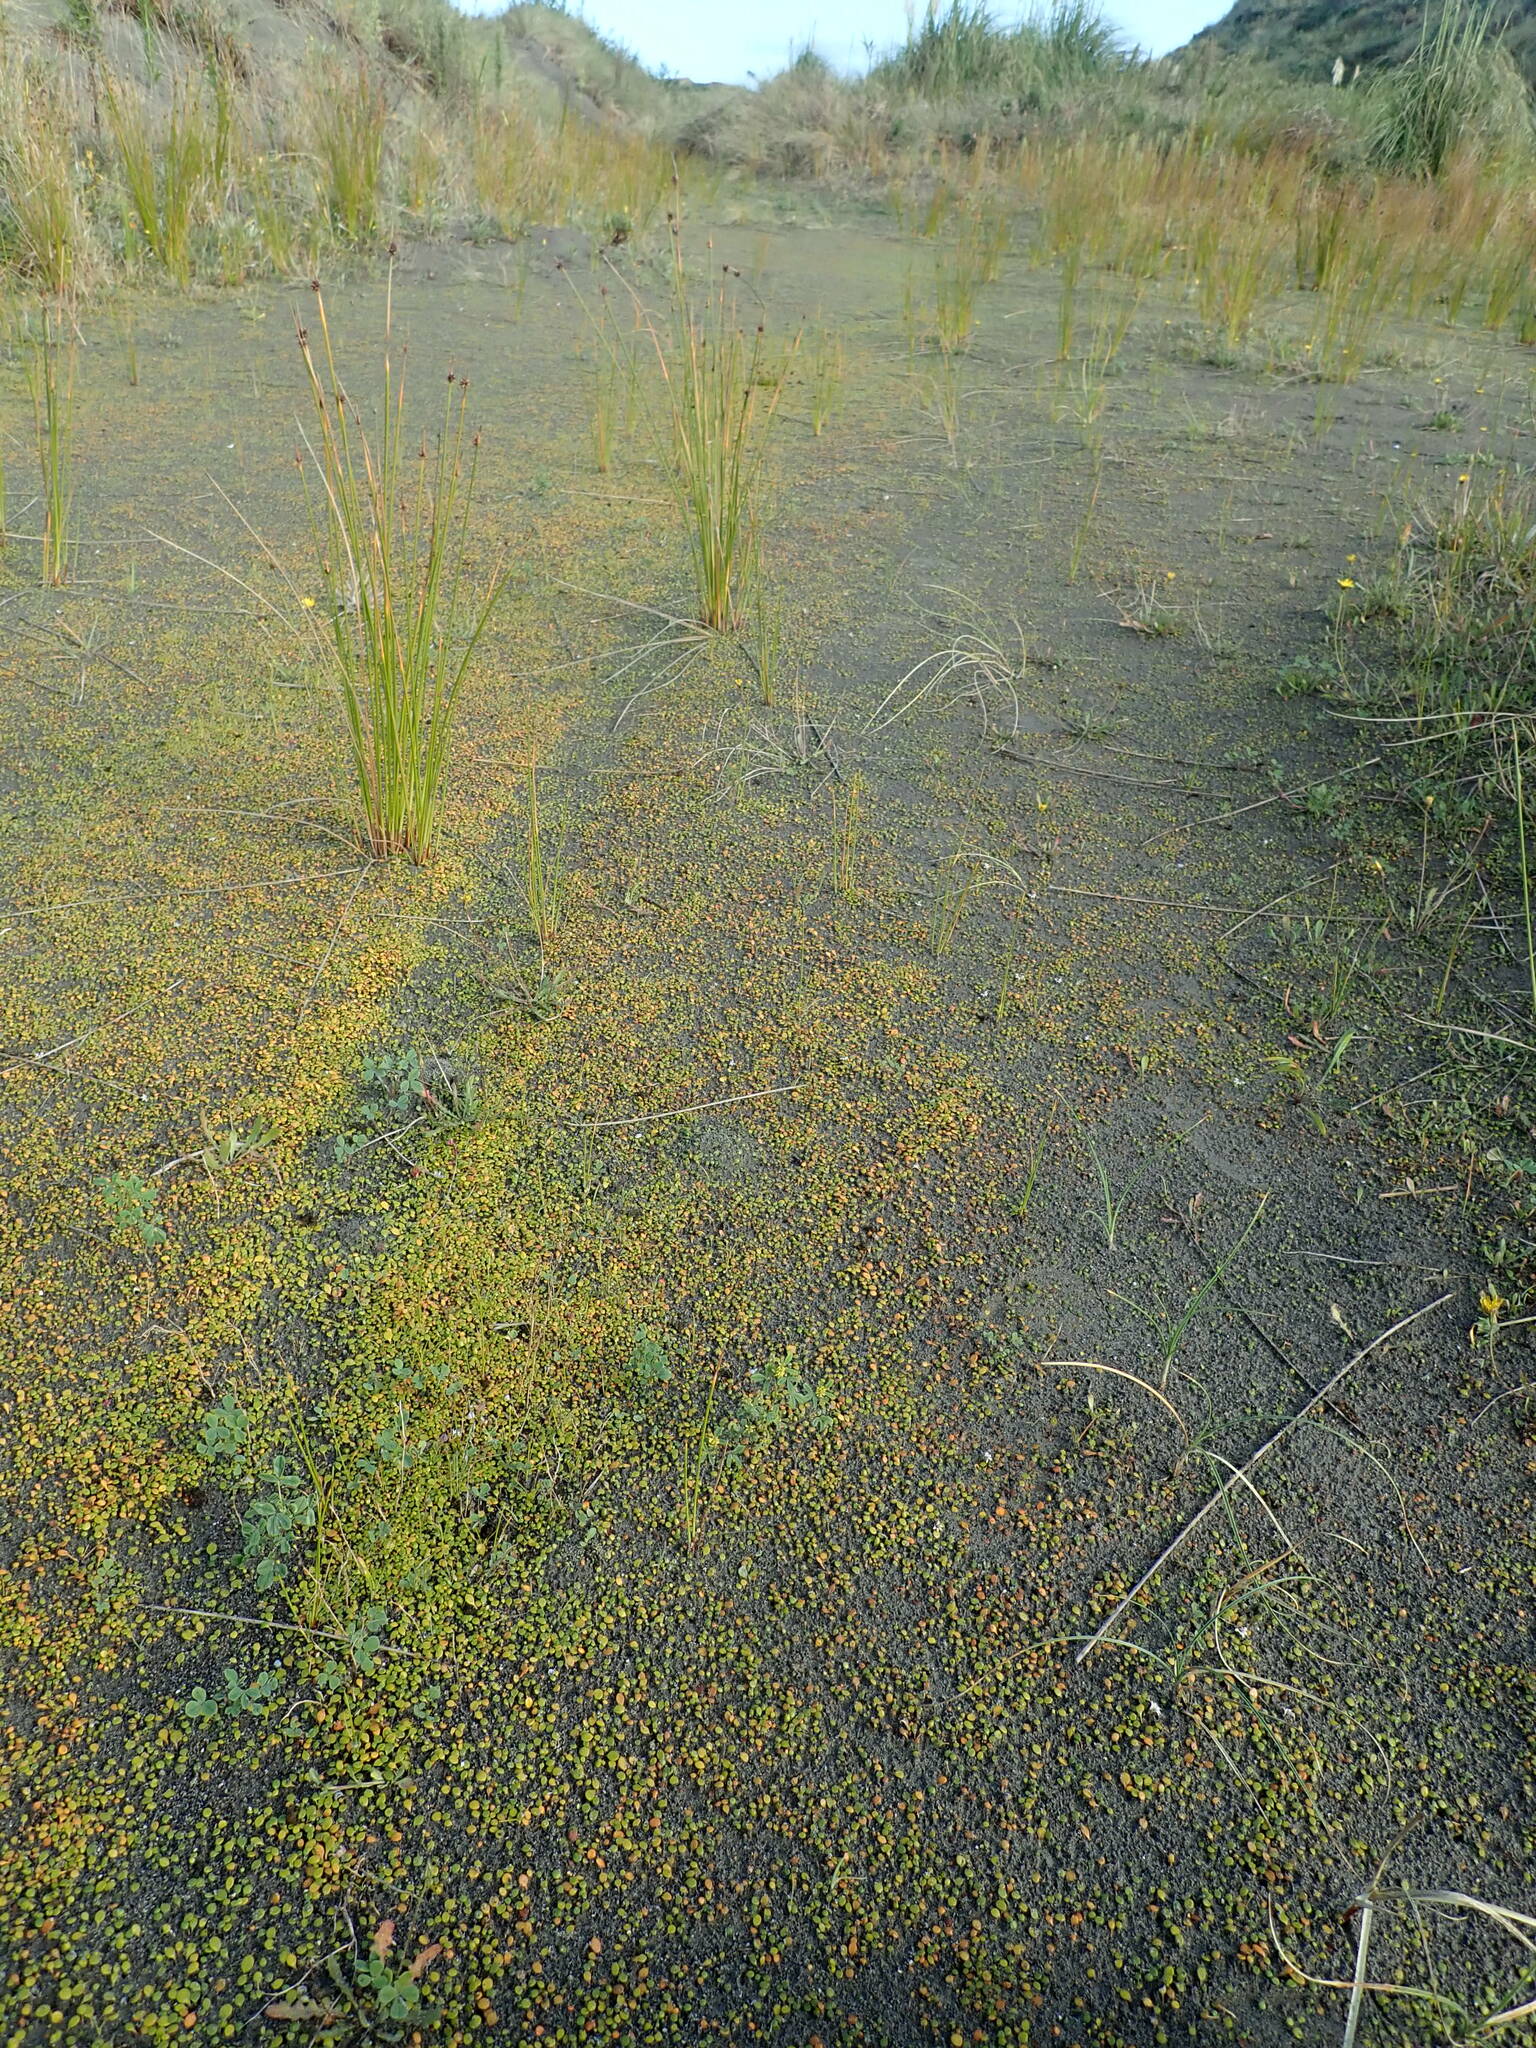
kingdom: Plantae
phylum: Tracheophyta
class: Magnoliopsida
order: Asterales
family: Goodeniaceae
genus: Goodenia
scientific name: Goodenia heenanii
